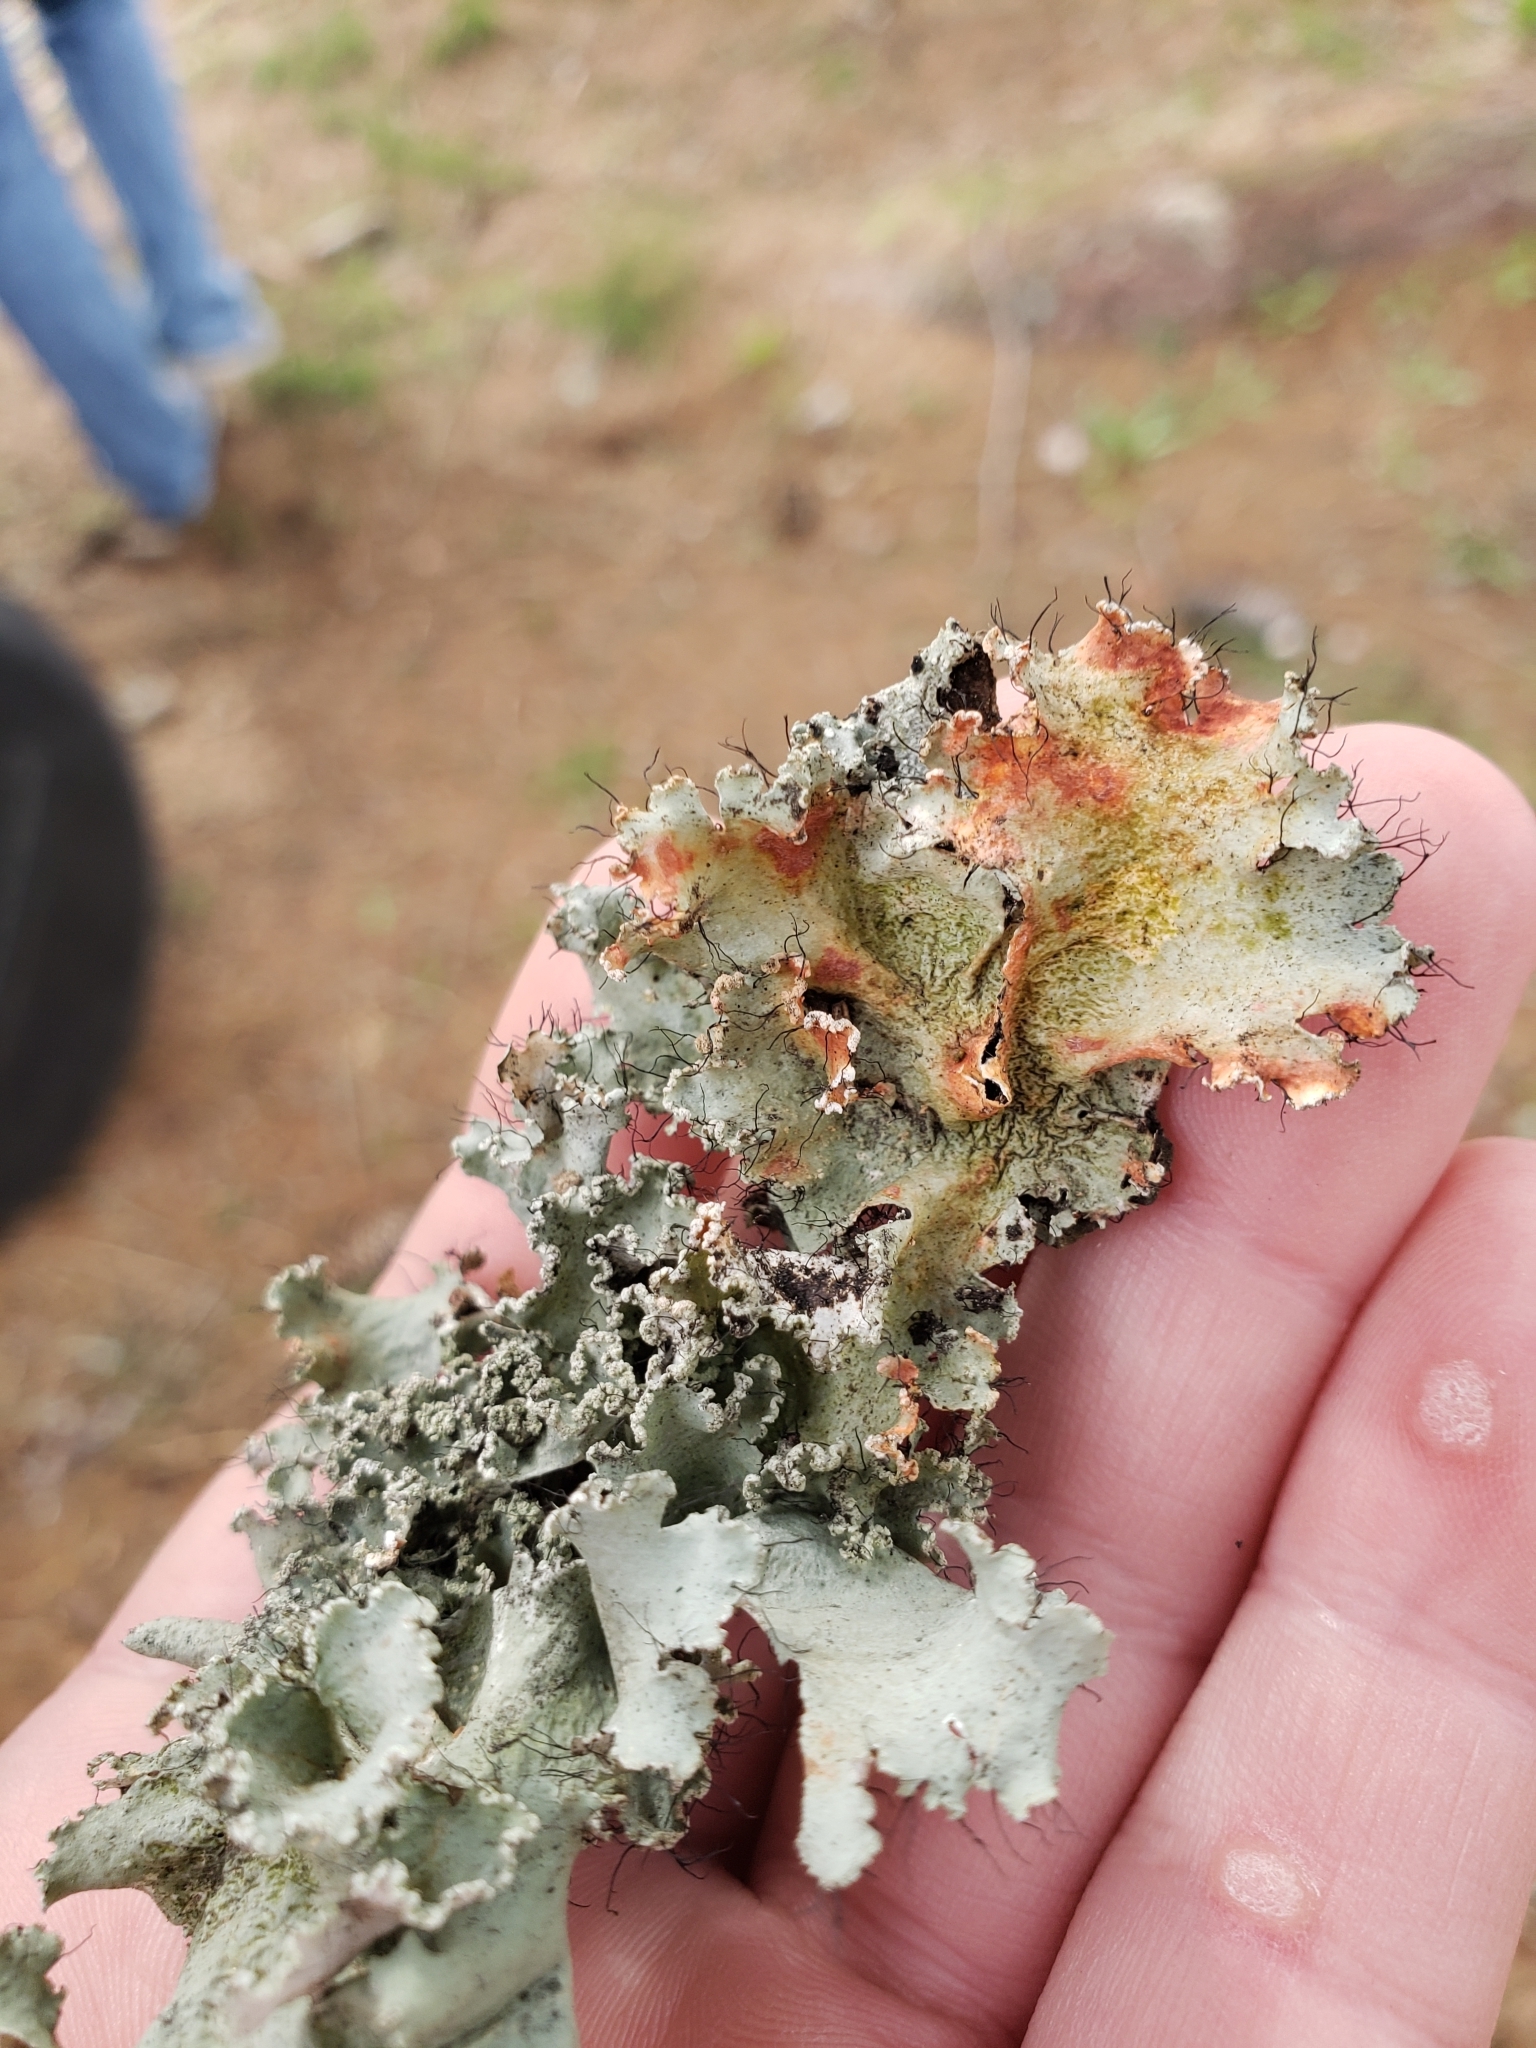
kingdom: Fungi
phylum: Ascomycota
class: Lecanoromycetes
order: Lecanorales
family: Parmeliaceae
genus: Parmotrema
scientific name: Parmotrema hypotropum
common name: Powdered ruffle lichen
